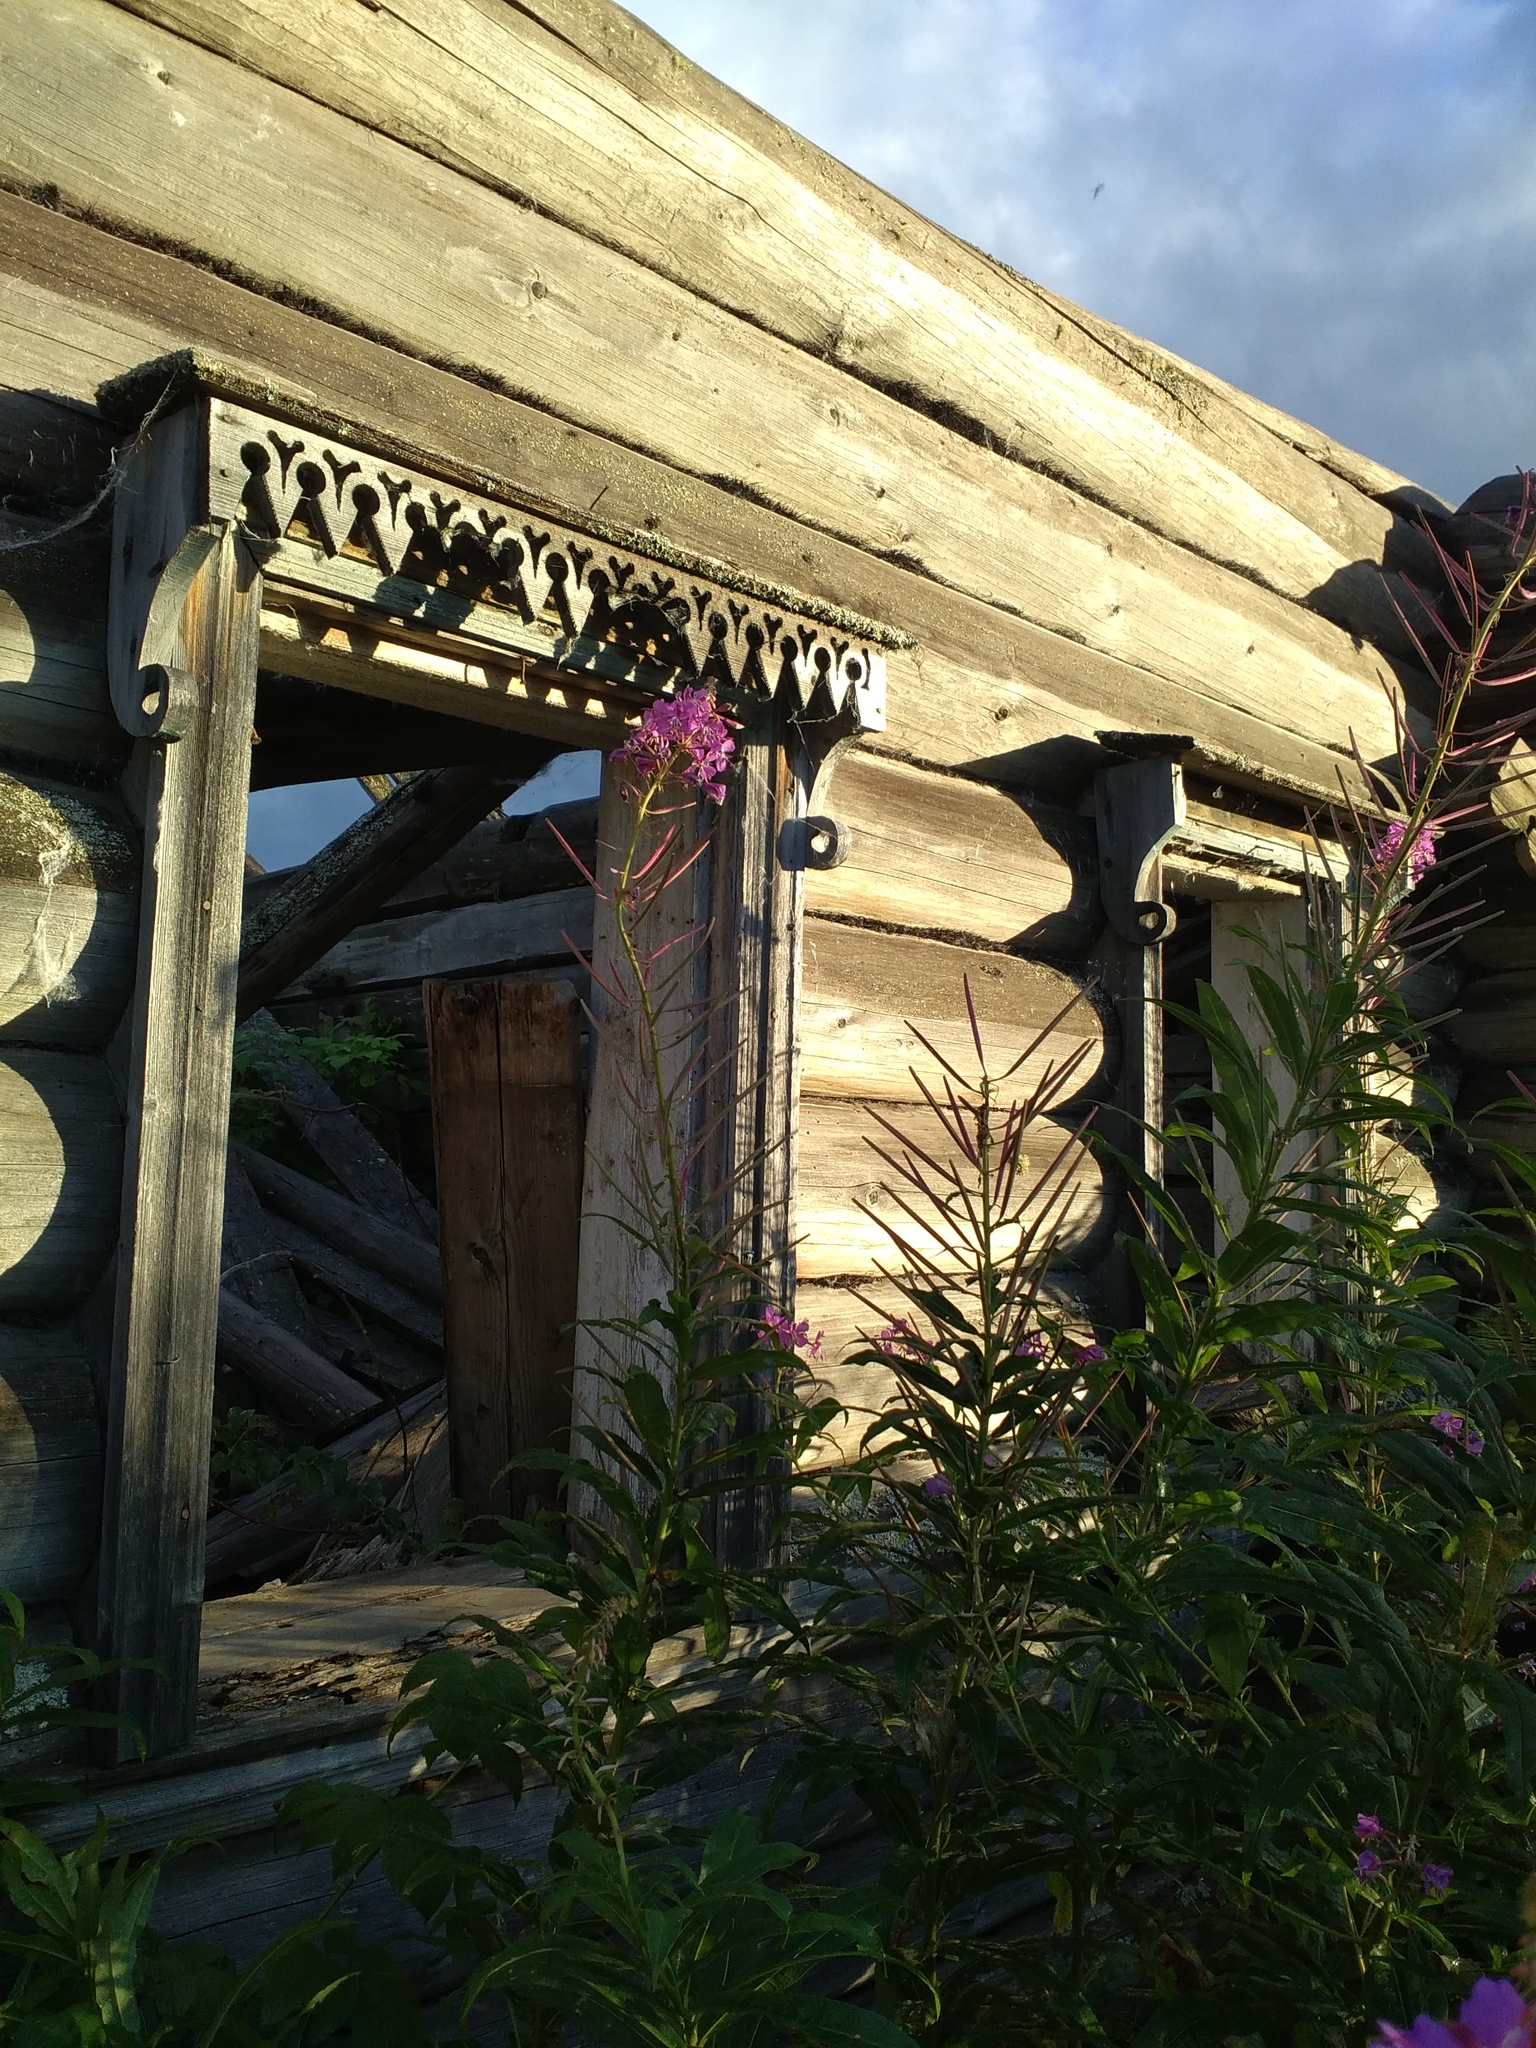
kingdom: Plantae
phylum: Tracheophyta
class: Magnoliopsida
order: Myrtales
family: Onagraceae
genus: Chamaenerion
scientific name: Chamaenerion angustifolium
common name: Fireweed
